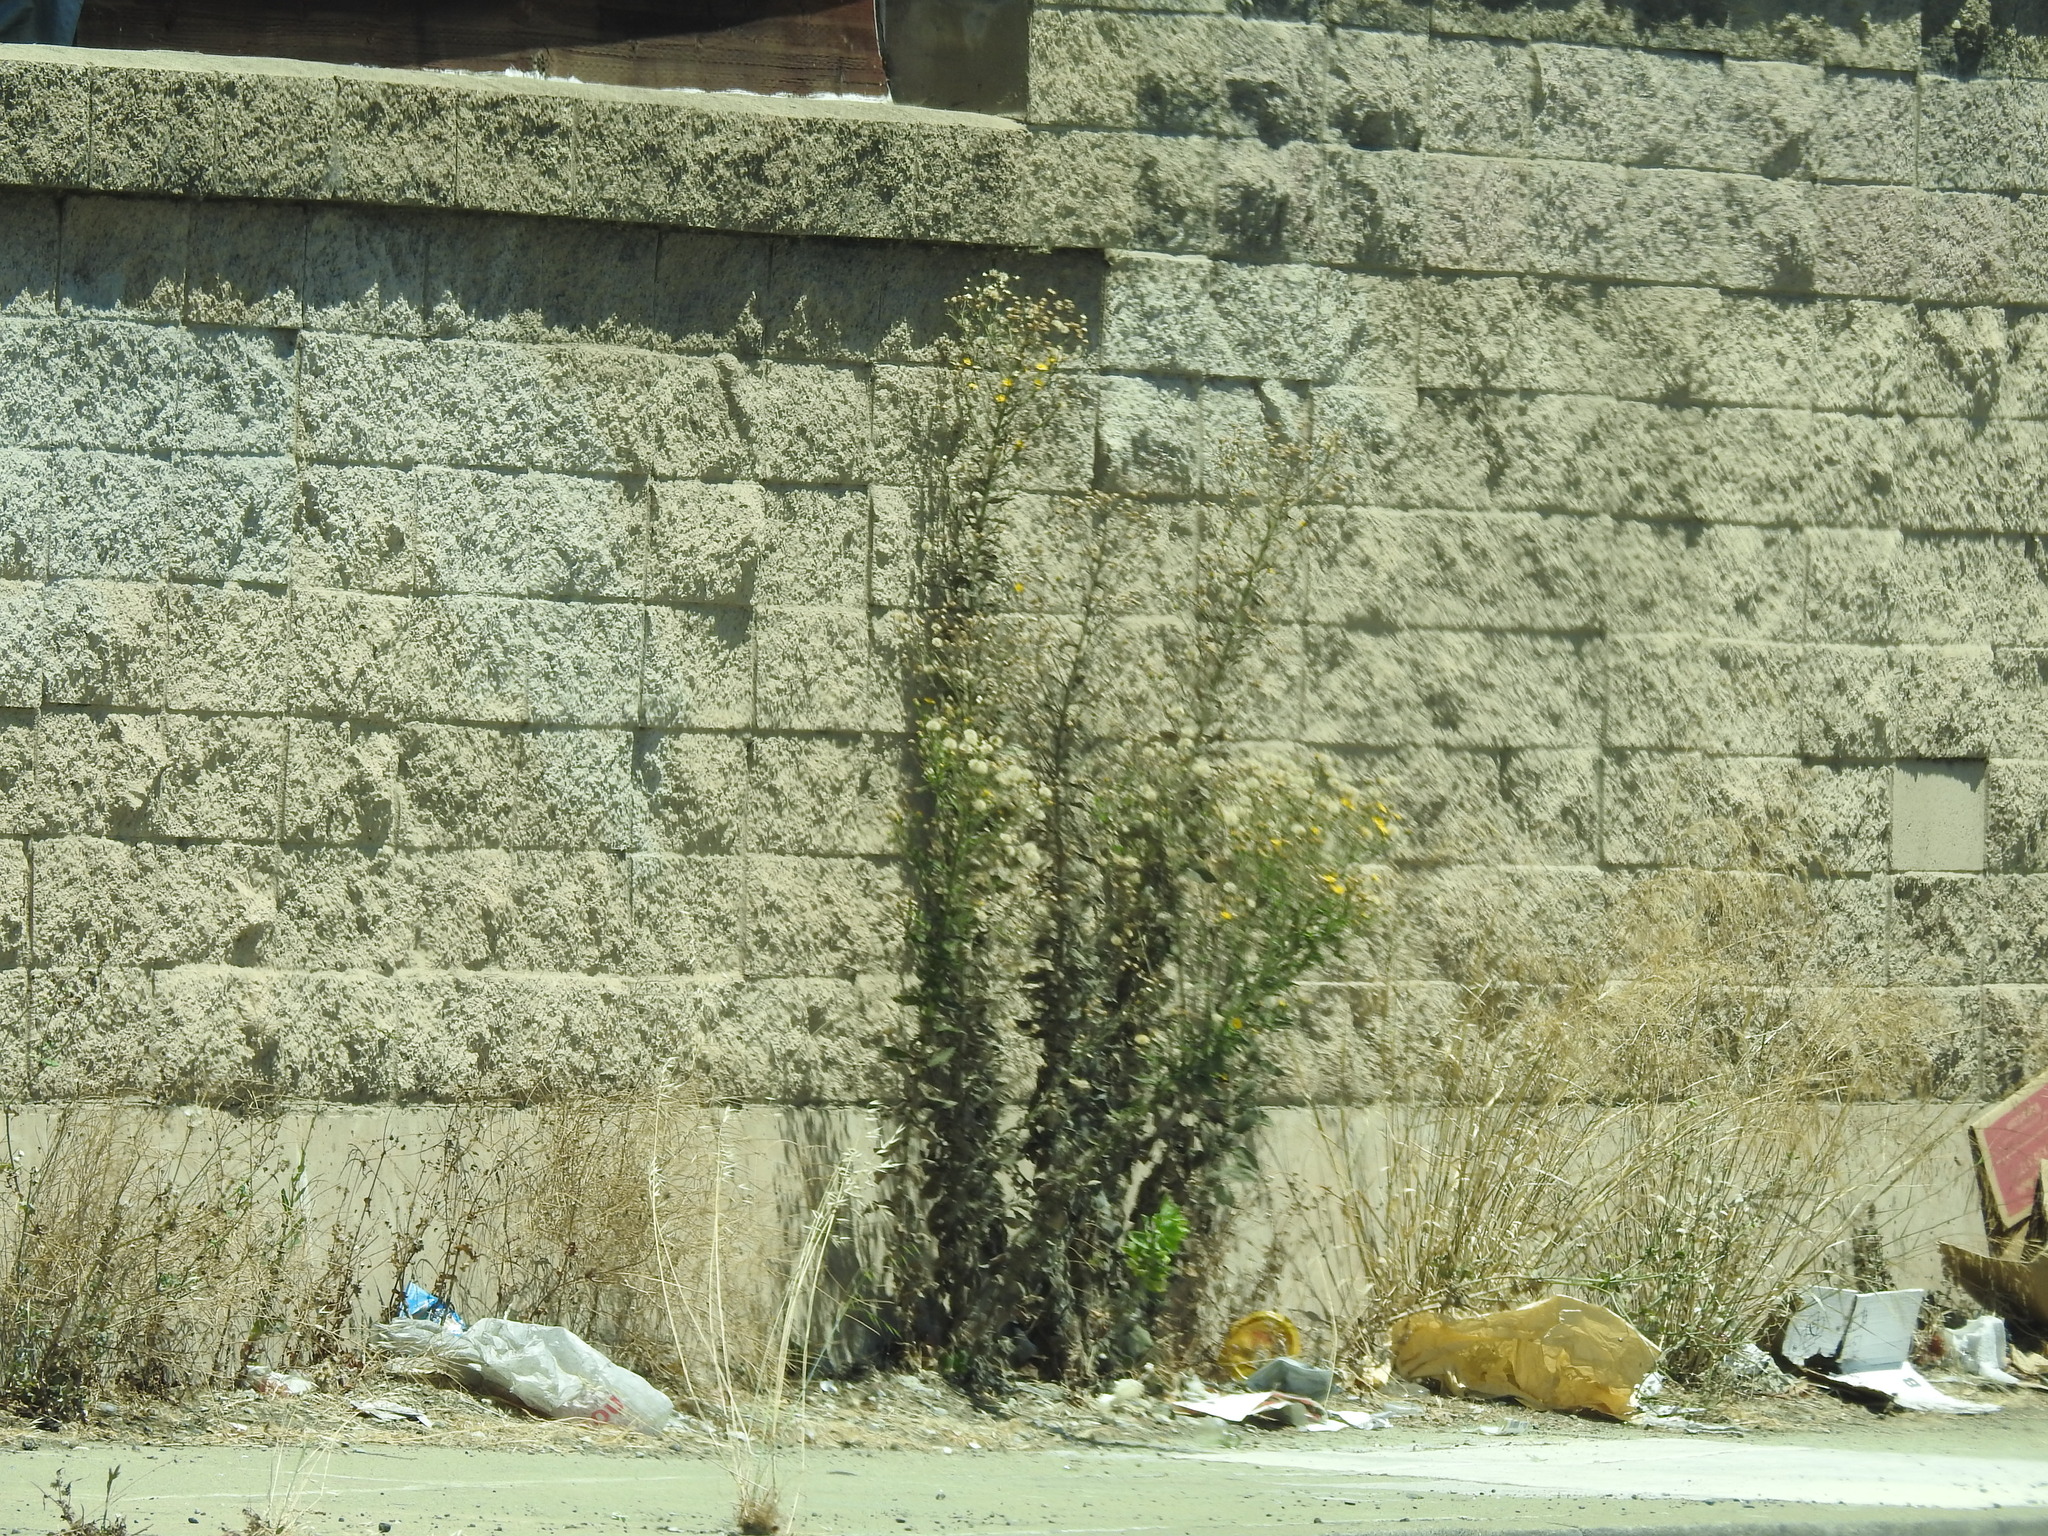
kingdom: Plantae
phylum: Tracheophyta
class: Magnoliopsida
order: Asterales
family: Asteraceae
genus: Heterotheca
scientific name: Heterotheca grandiflora
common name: Telegraphweed
